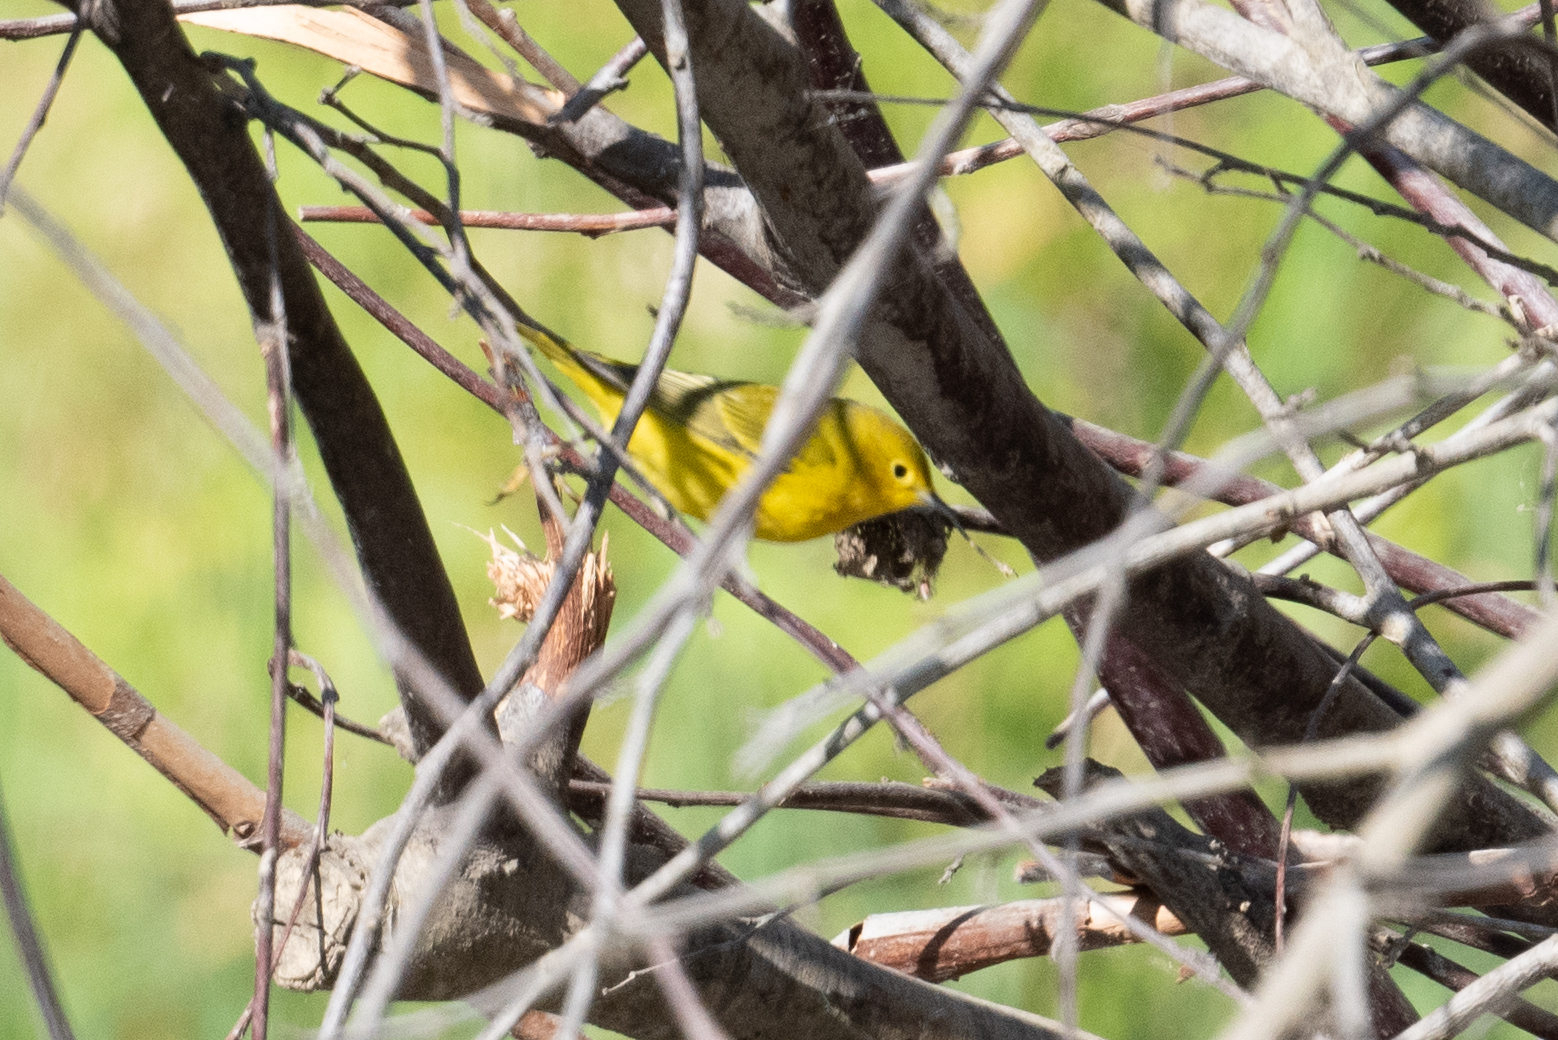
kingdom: Animalia
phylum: Chordata
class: Aves
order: Passeriformes
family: Parulidae
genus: Setophaga
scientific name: Setophaga petechia
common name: Yellow warbler
